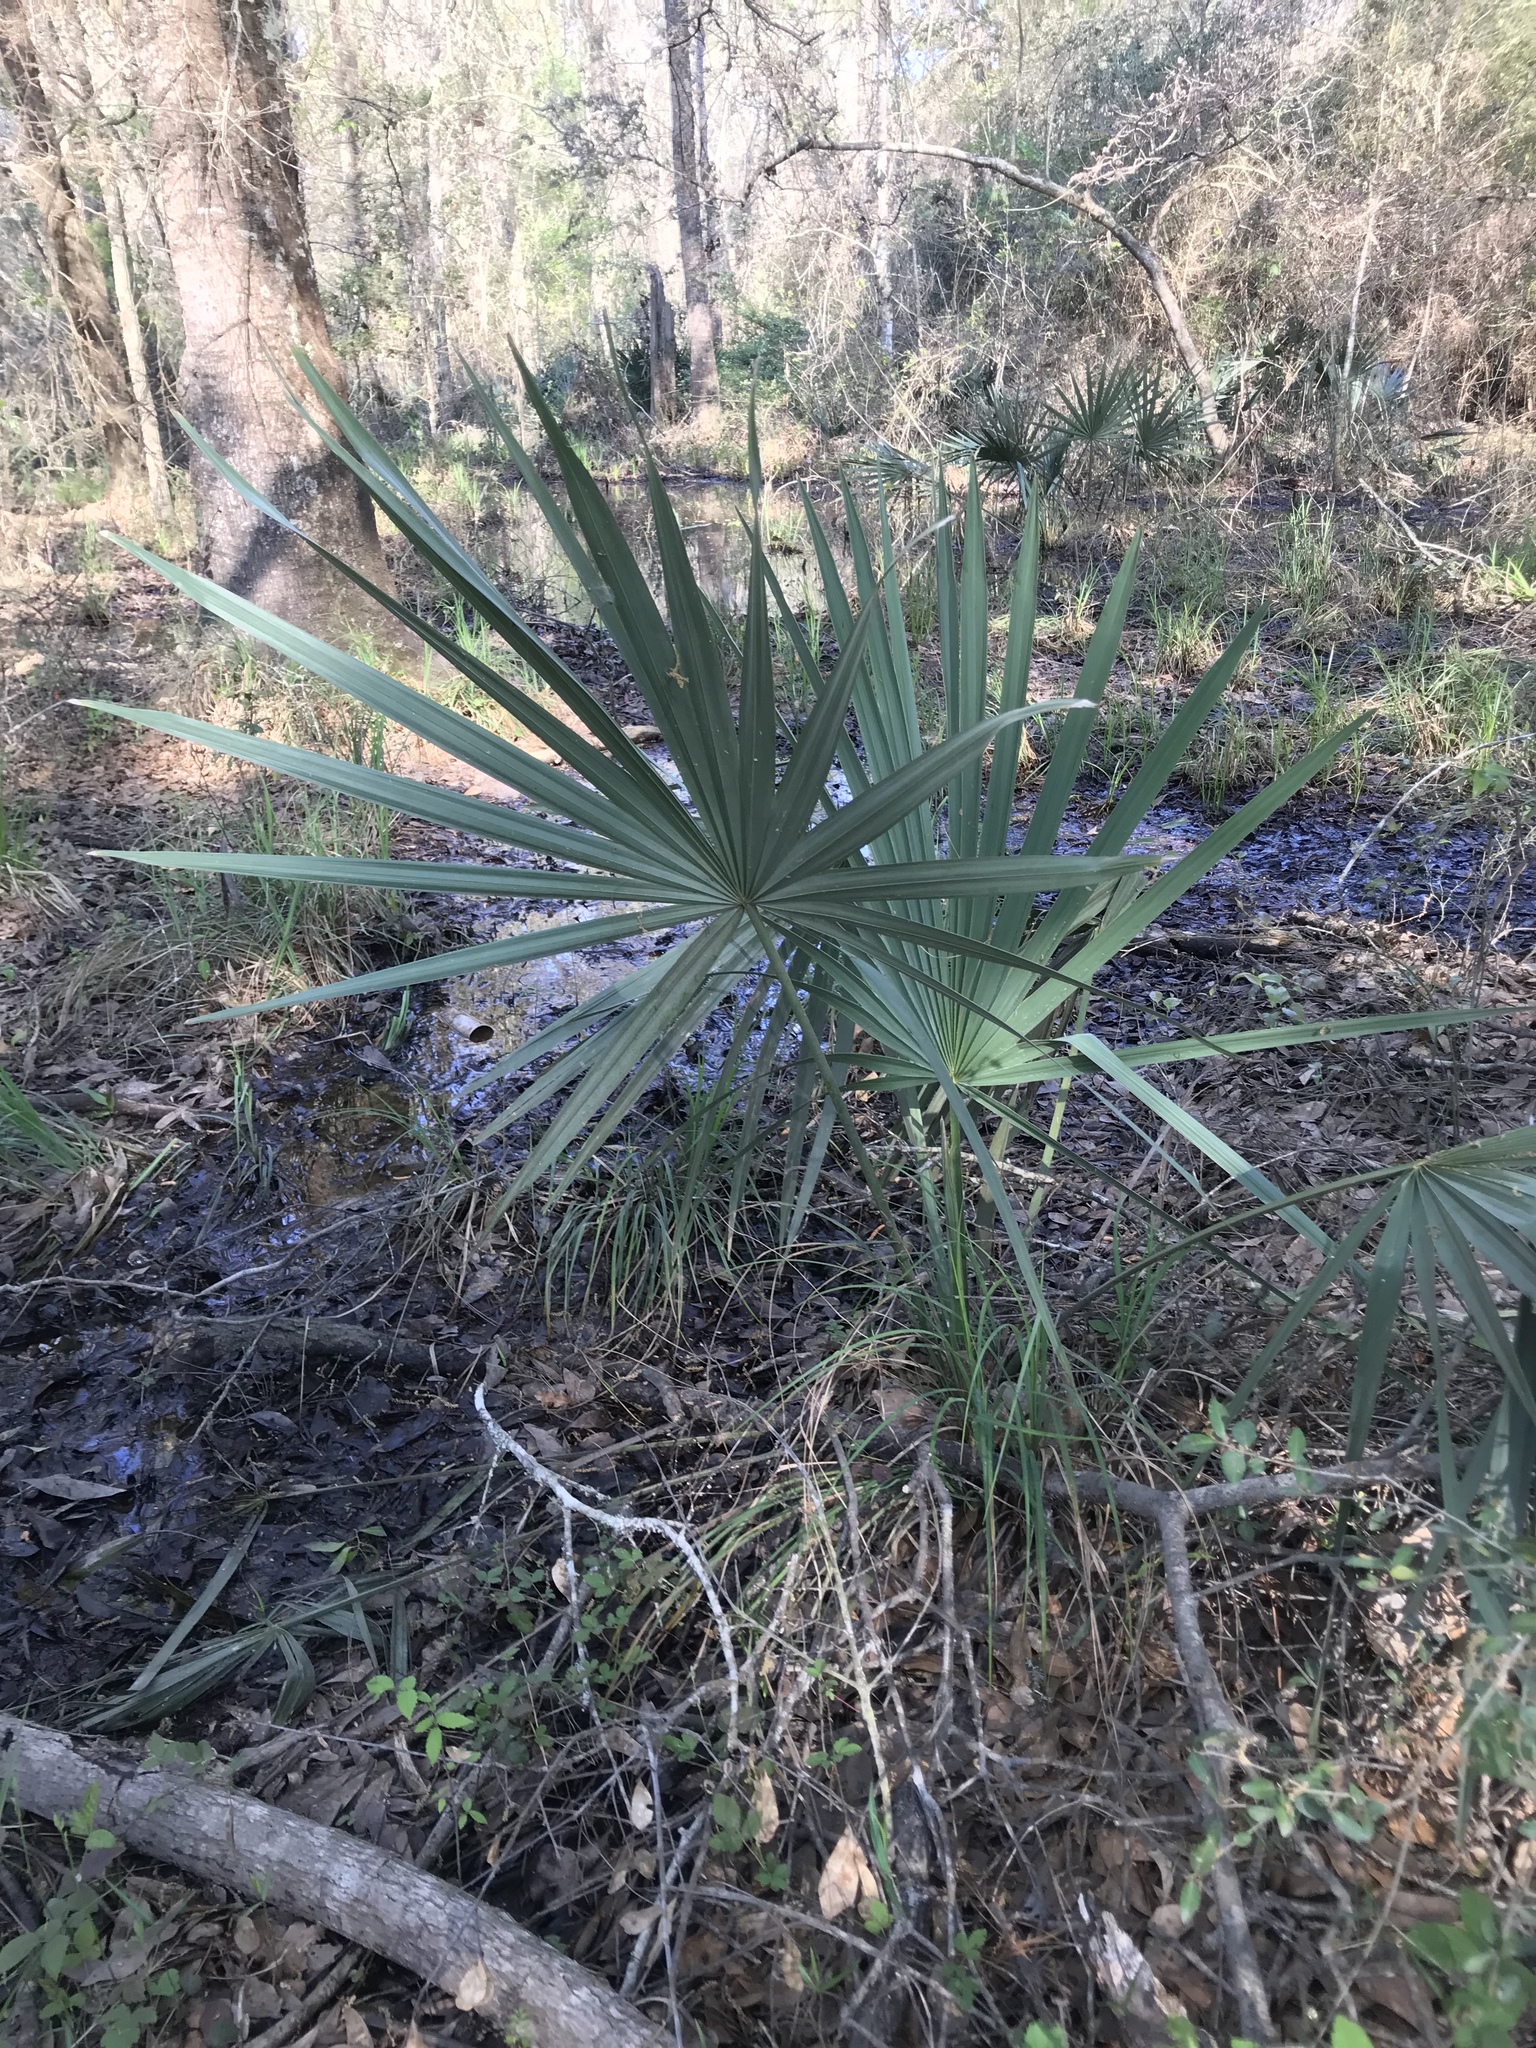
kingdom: Plantae
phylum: Tracheophyta
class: Liliopsida
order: Arecales
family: Arecaceae
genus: Sabal
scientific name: Sabal minor
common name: Dwarf palmetto
